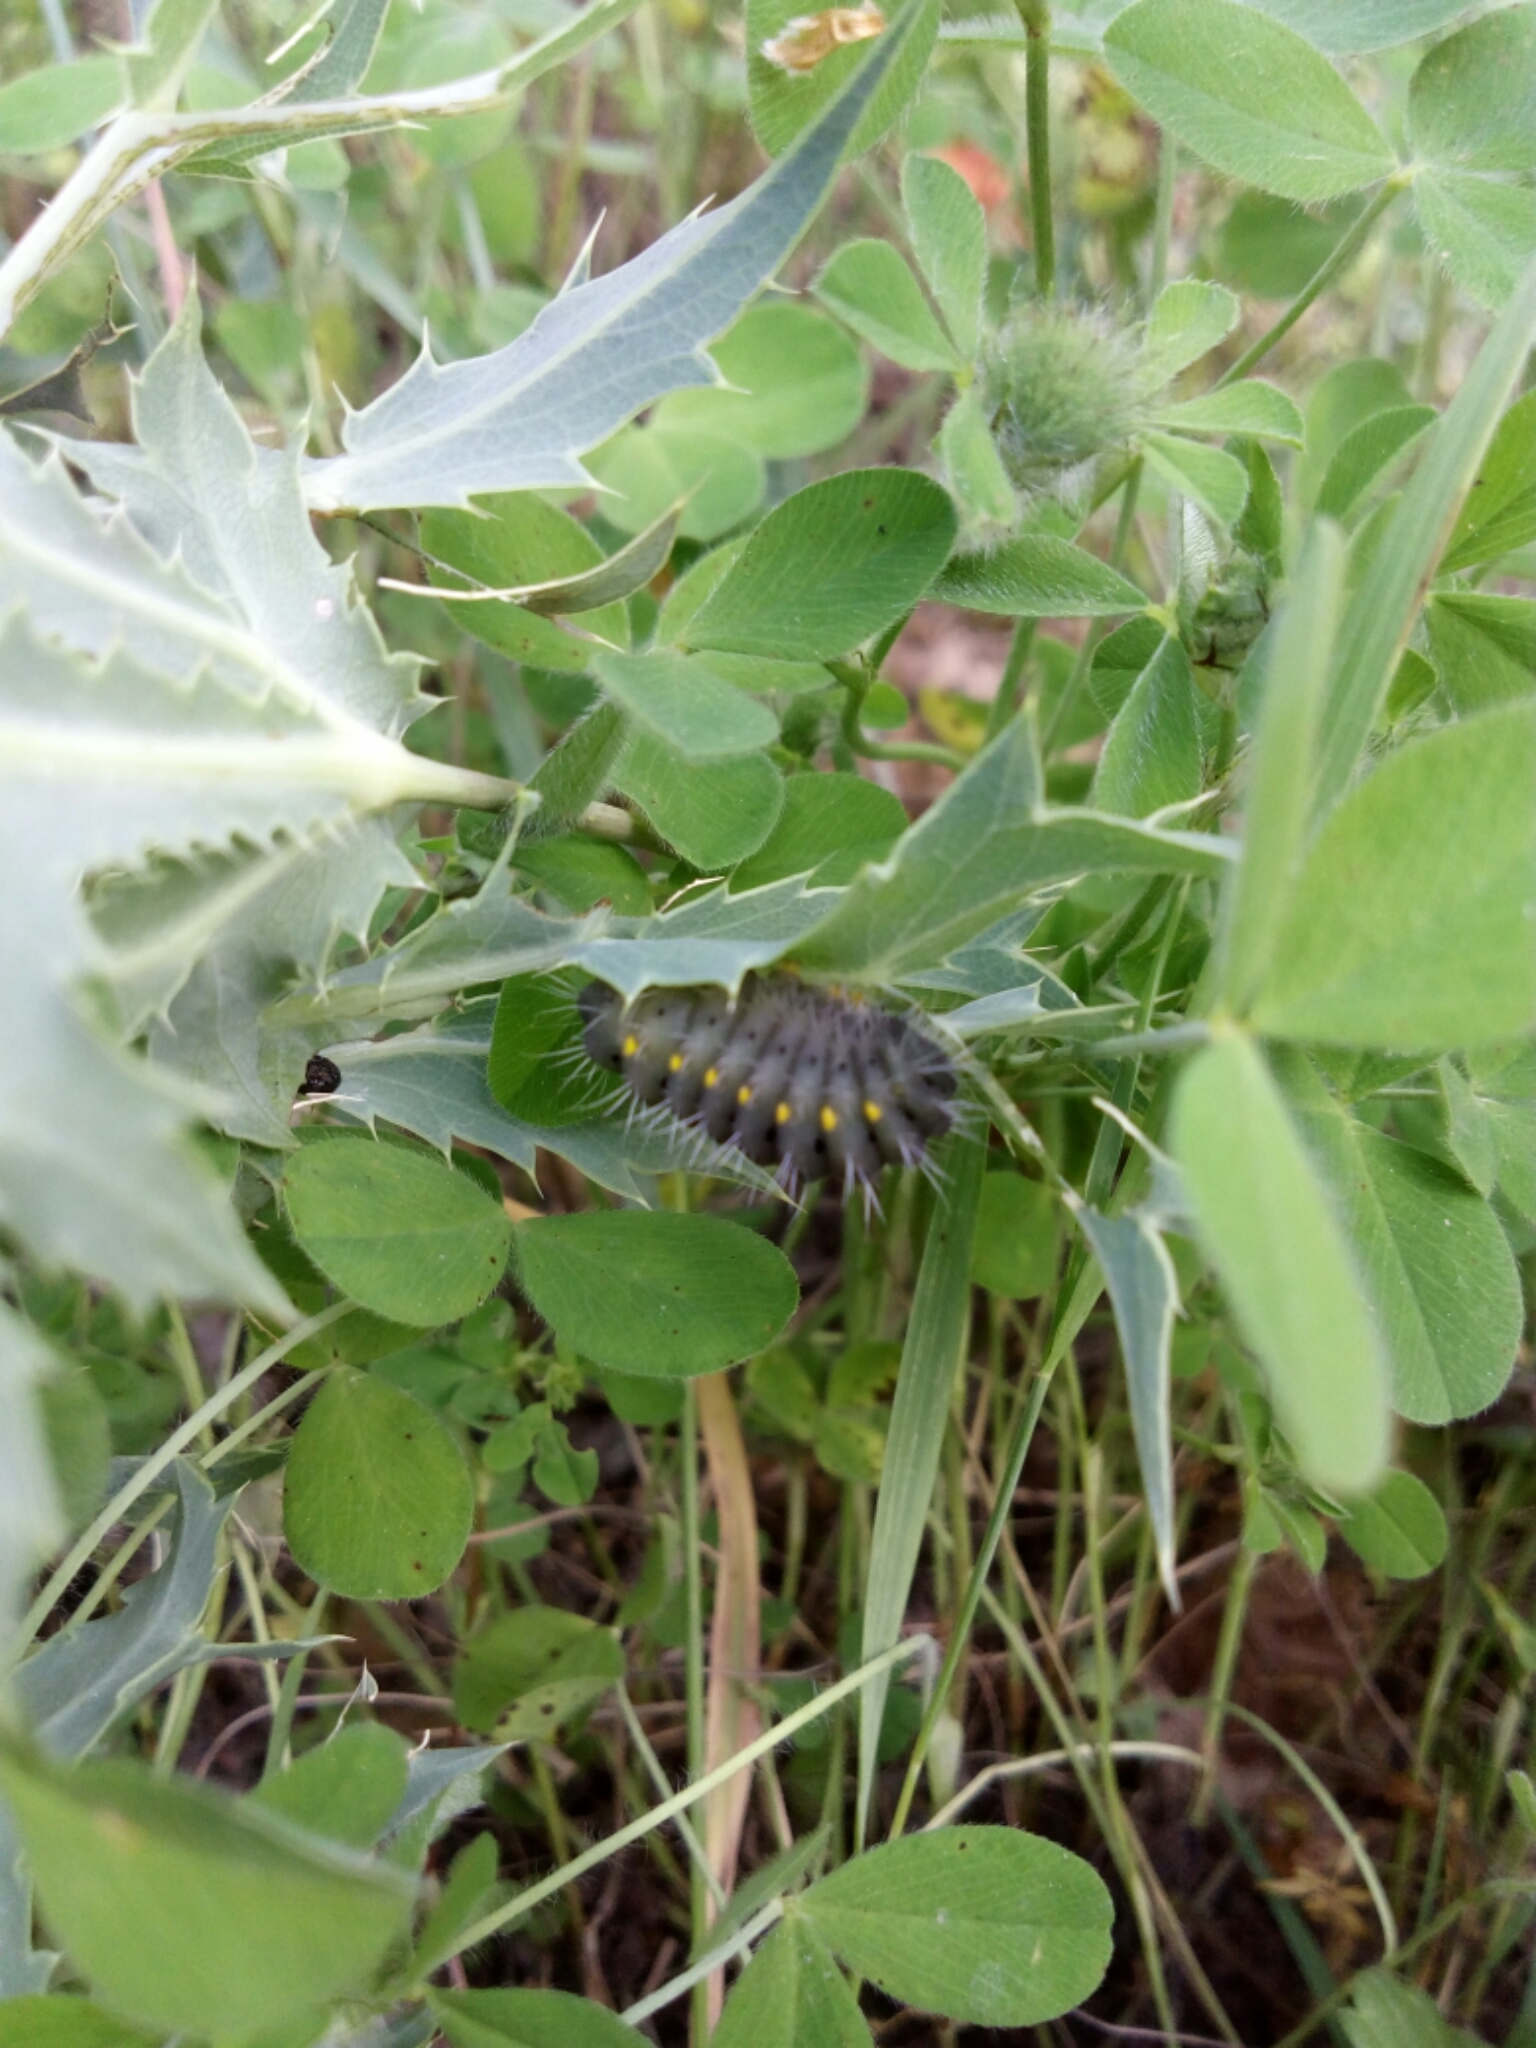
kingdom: Animalia
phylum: Arthropoda
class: Insecta
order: Lepidoptera
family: Zygaenidae
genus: Zygaena
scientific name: Zygaena erythrus
